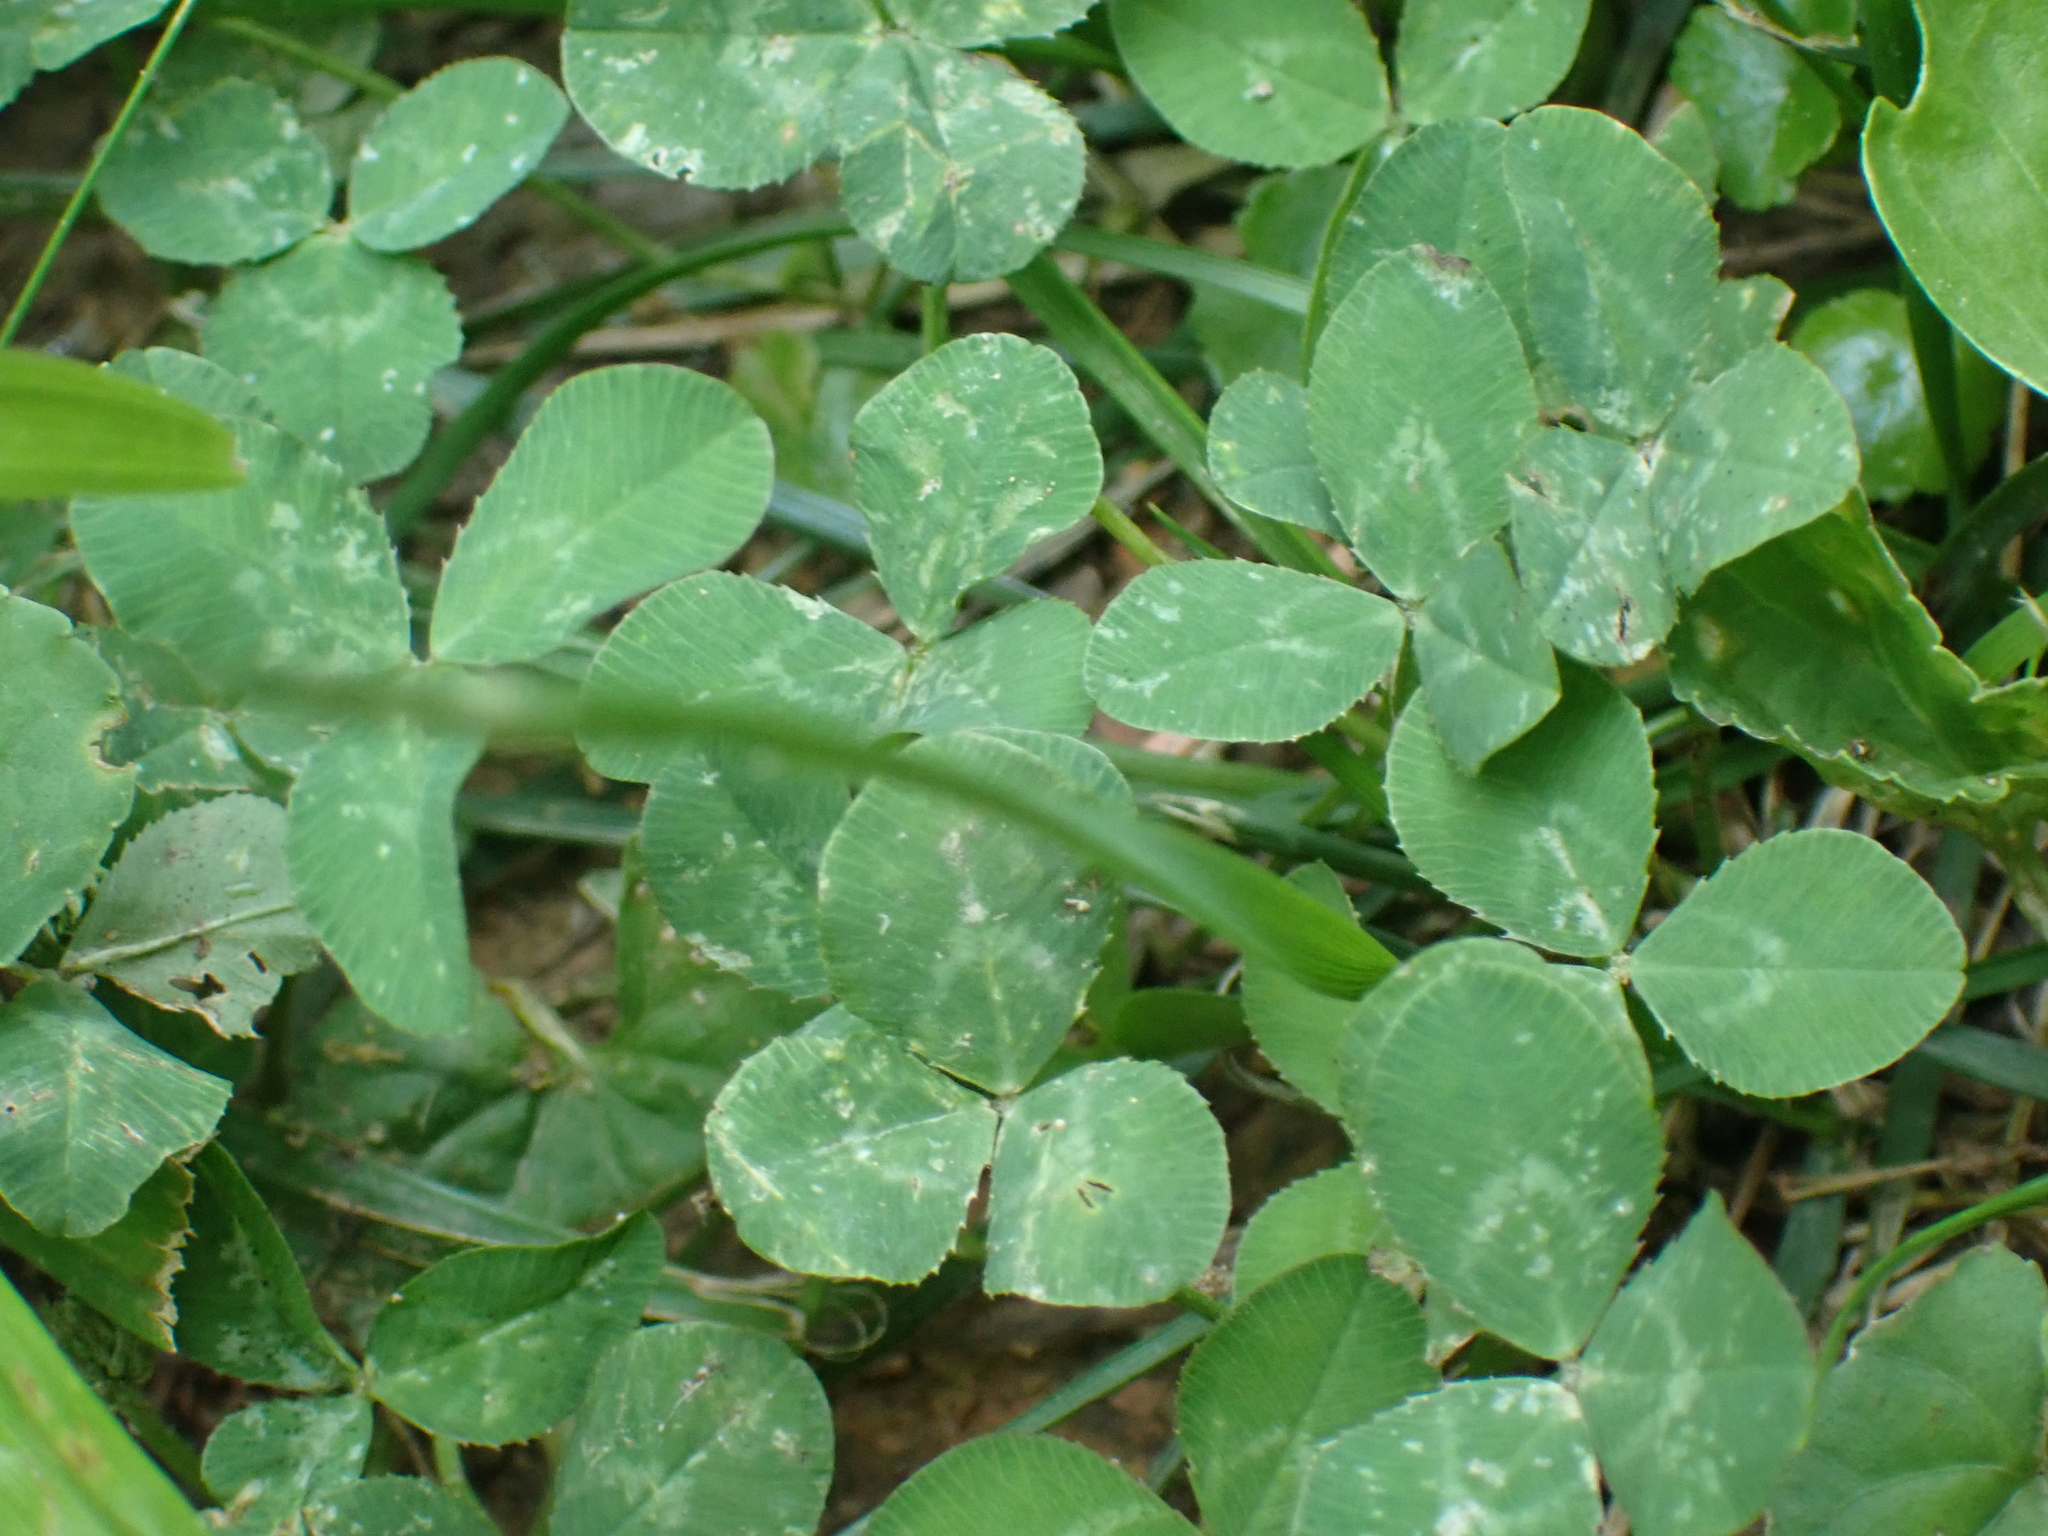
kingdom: Plantae
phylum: Tracheophyta
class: Magnoliopsida
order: Fabales
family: Fabaceae
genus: Trifolium
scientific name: Trifolium repens
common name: White clover
